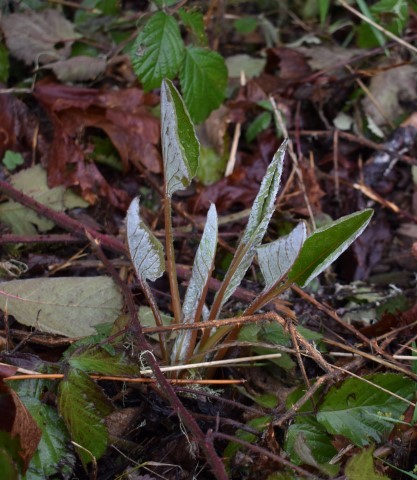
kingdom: Plantae
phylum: Tracheophyta
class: Magnoliopsida
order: Boraginales
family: Boraginaceae
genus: Adelinia
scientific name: Adelinia grande
